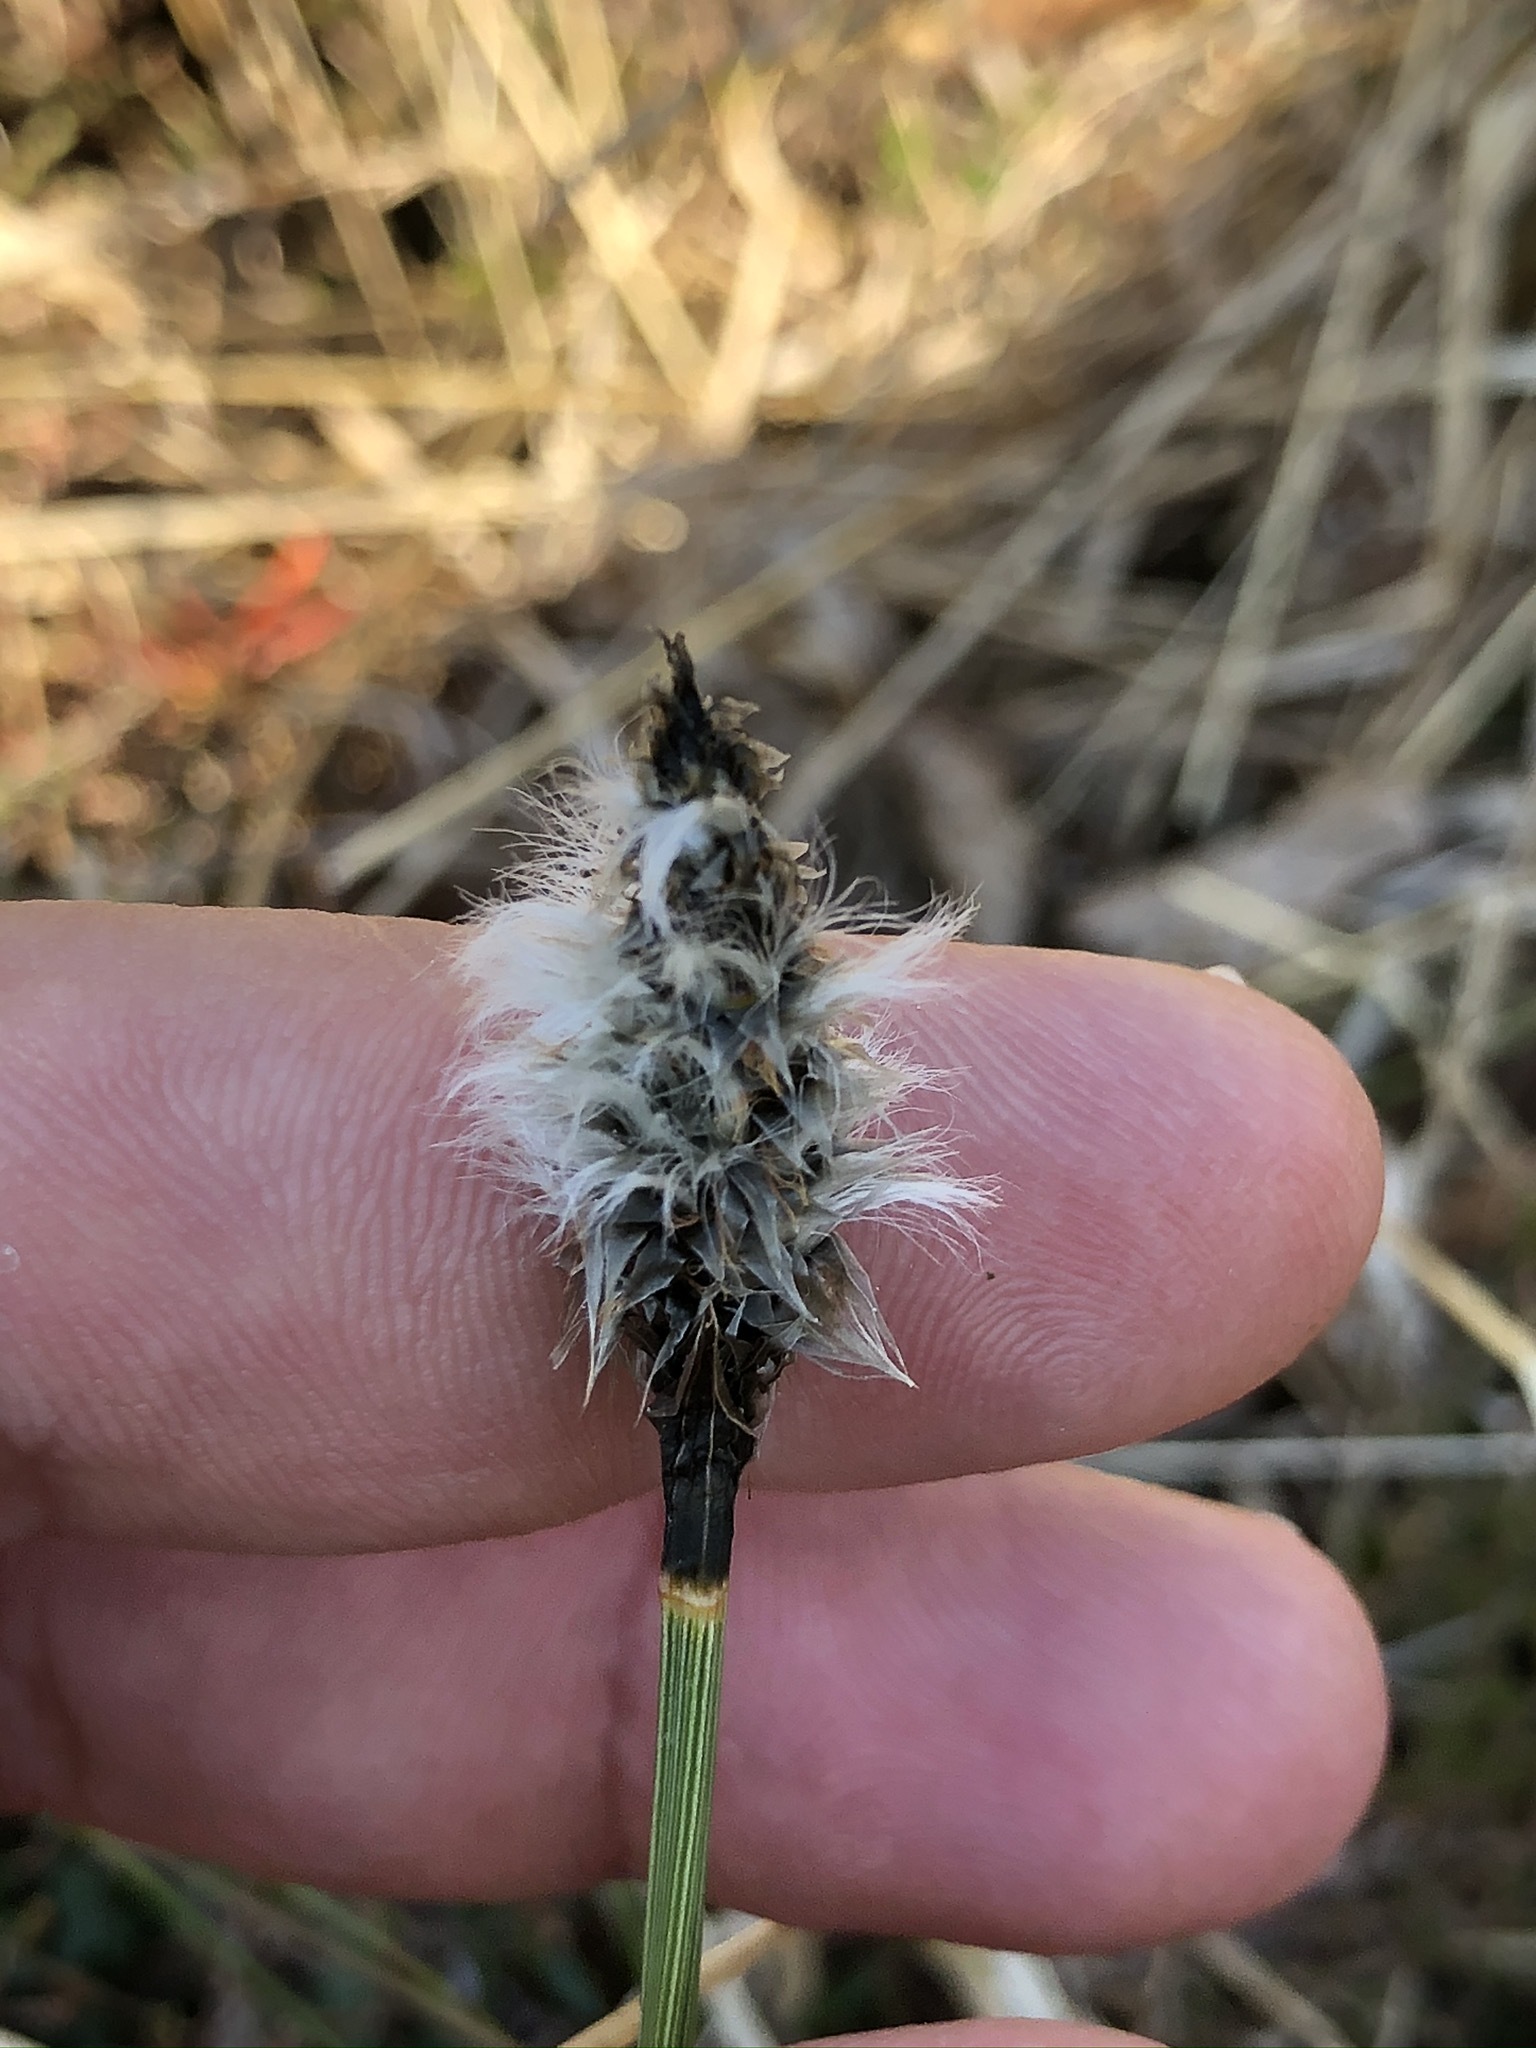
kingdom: Plantae
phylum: Tracheophyta
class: Liliopsida
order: Poales
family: Cyperaceae
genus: Eriophorum
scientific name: Eriophorum vaginatum
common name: Hare's-tail cottongrass
